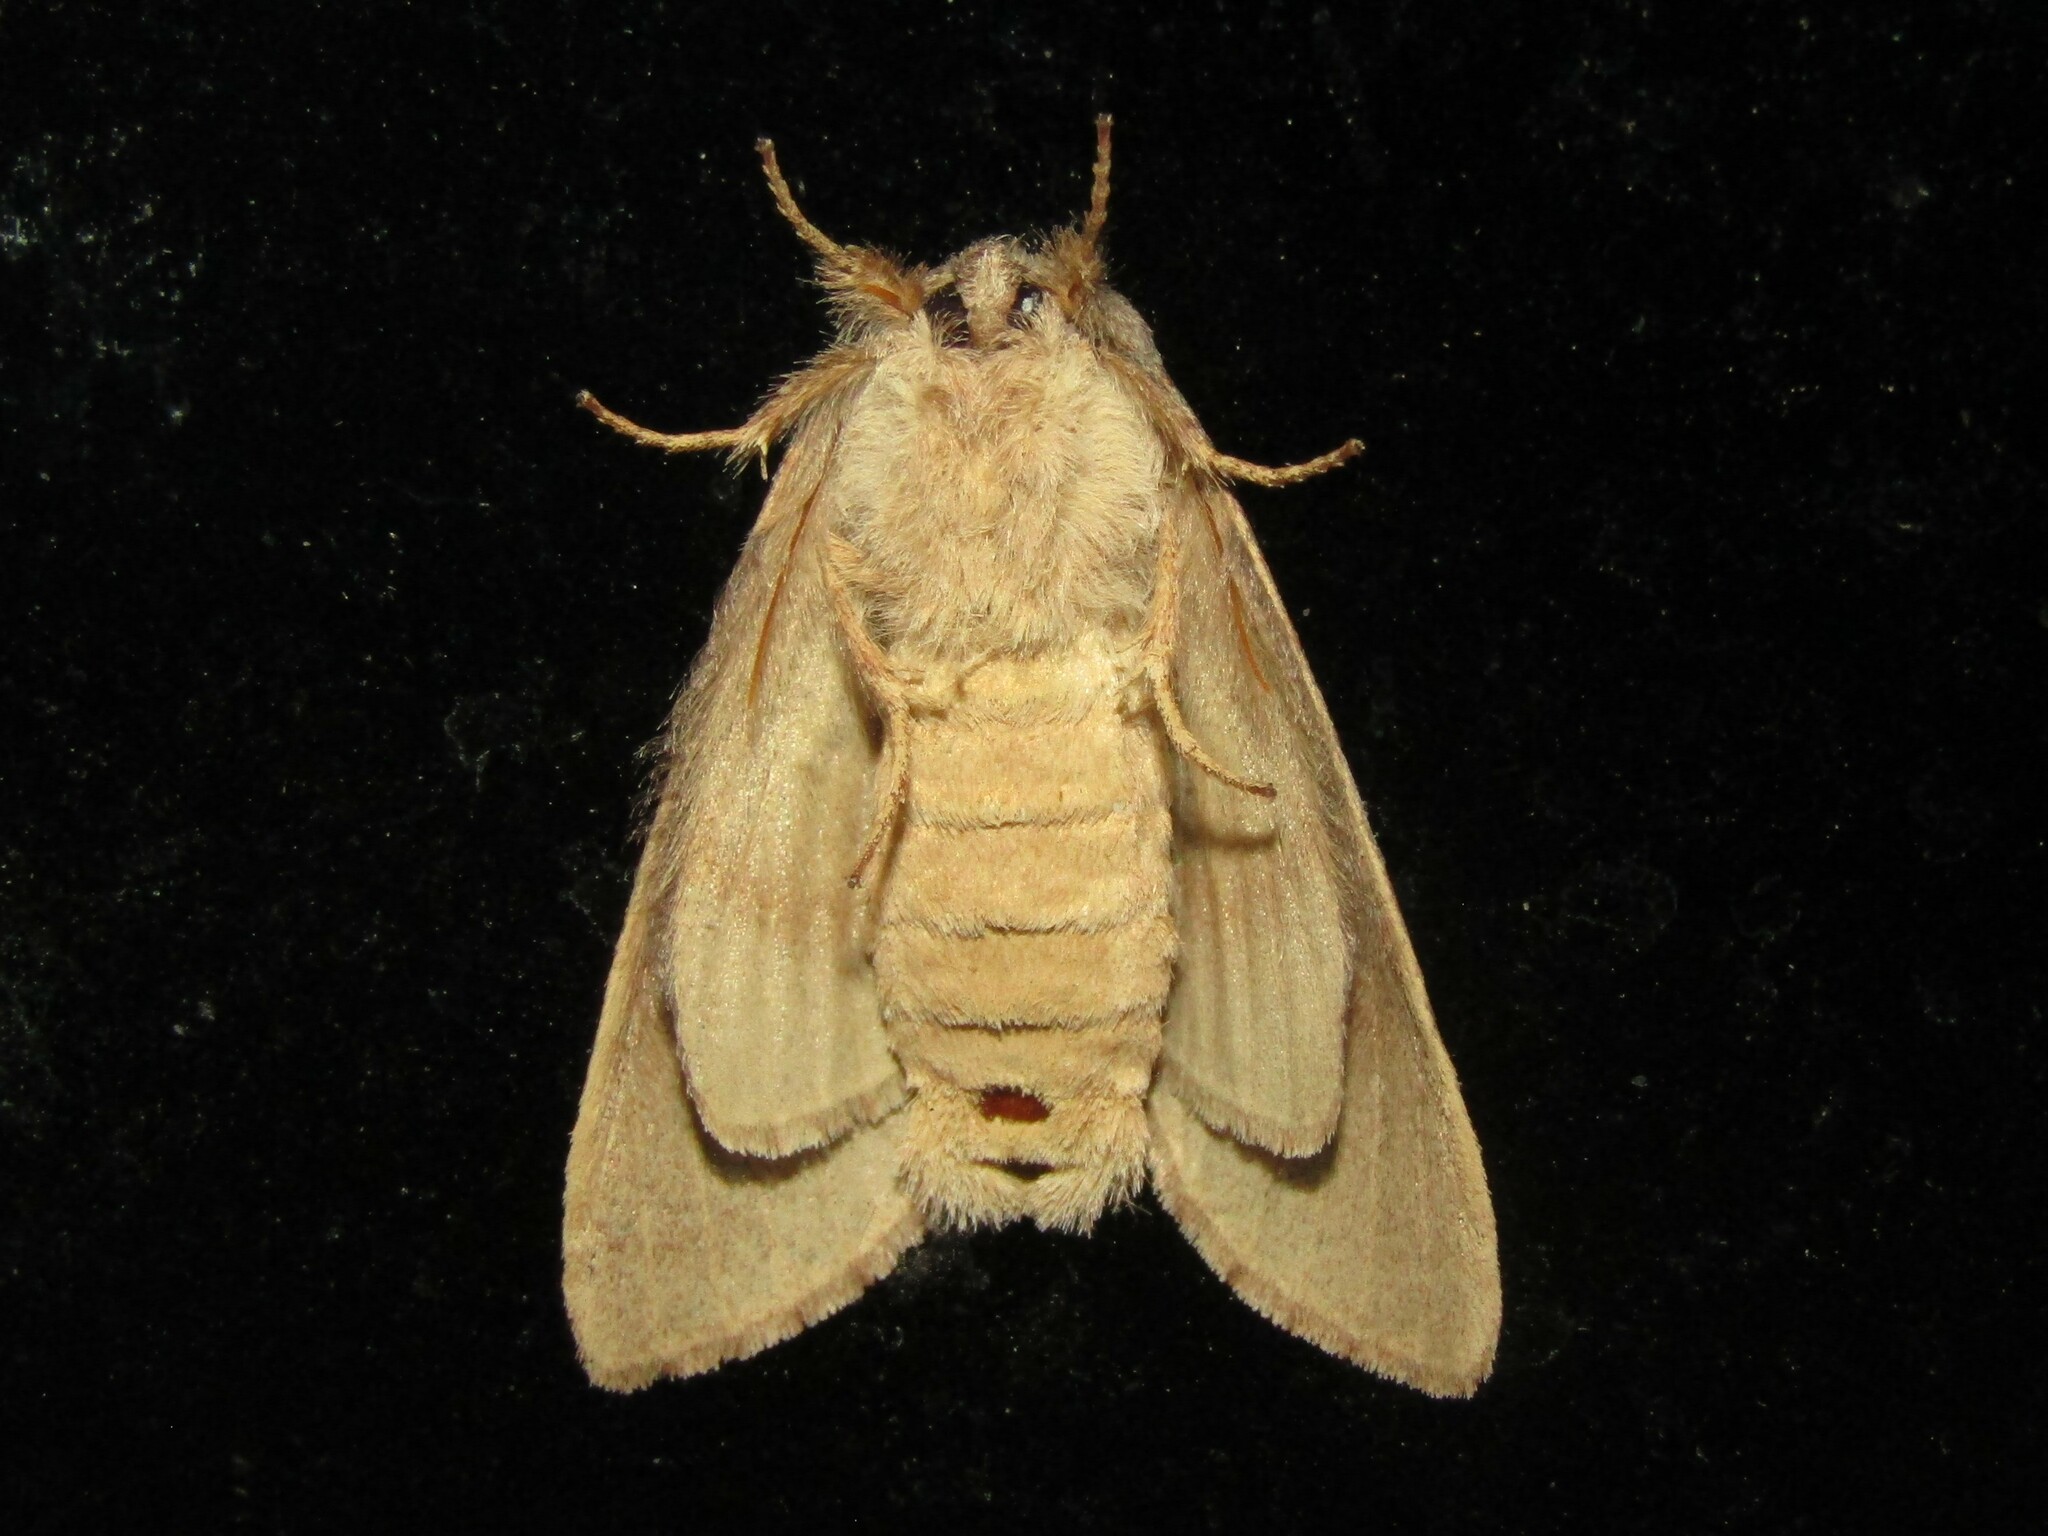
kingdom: Animalia
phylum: Arthropoda
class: Insecta
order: Lepidoptera
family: Notodontidae
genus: Misogada
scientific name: Misogada unicolor
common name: Drab prominent
